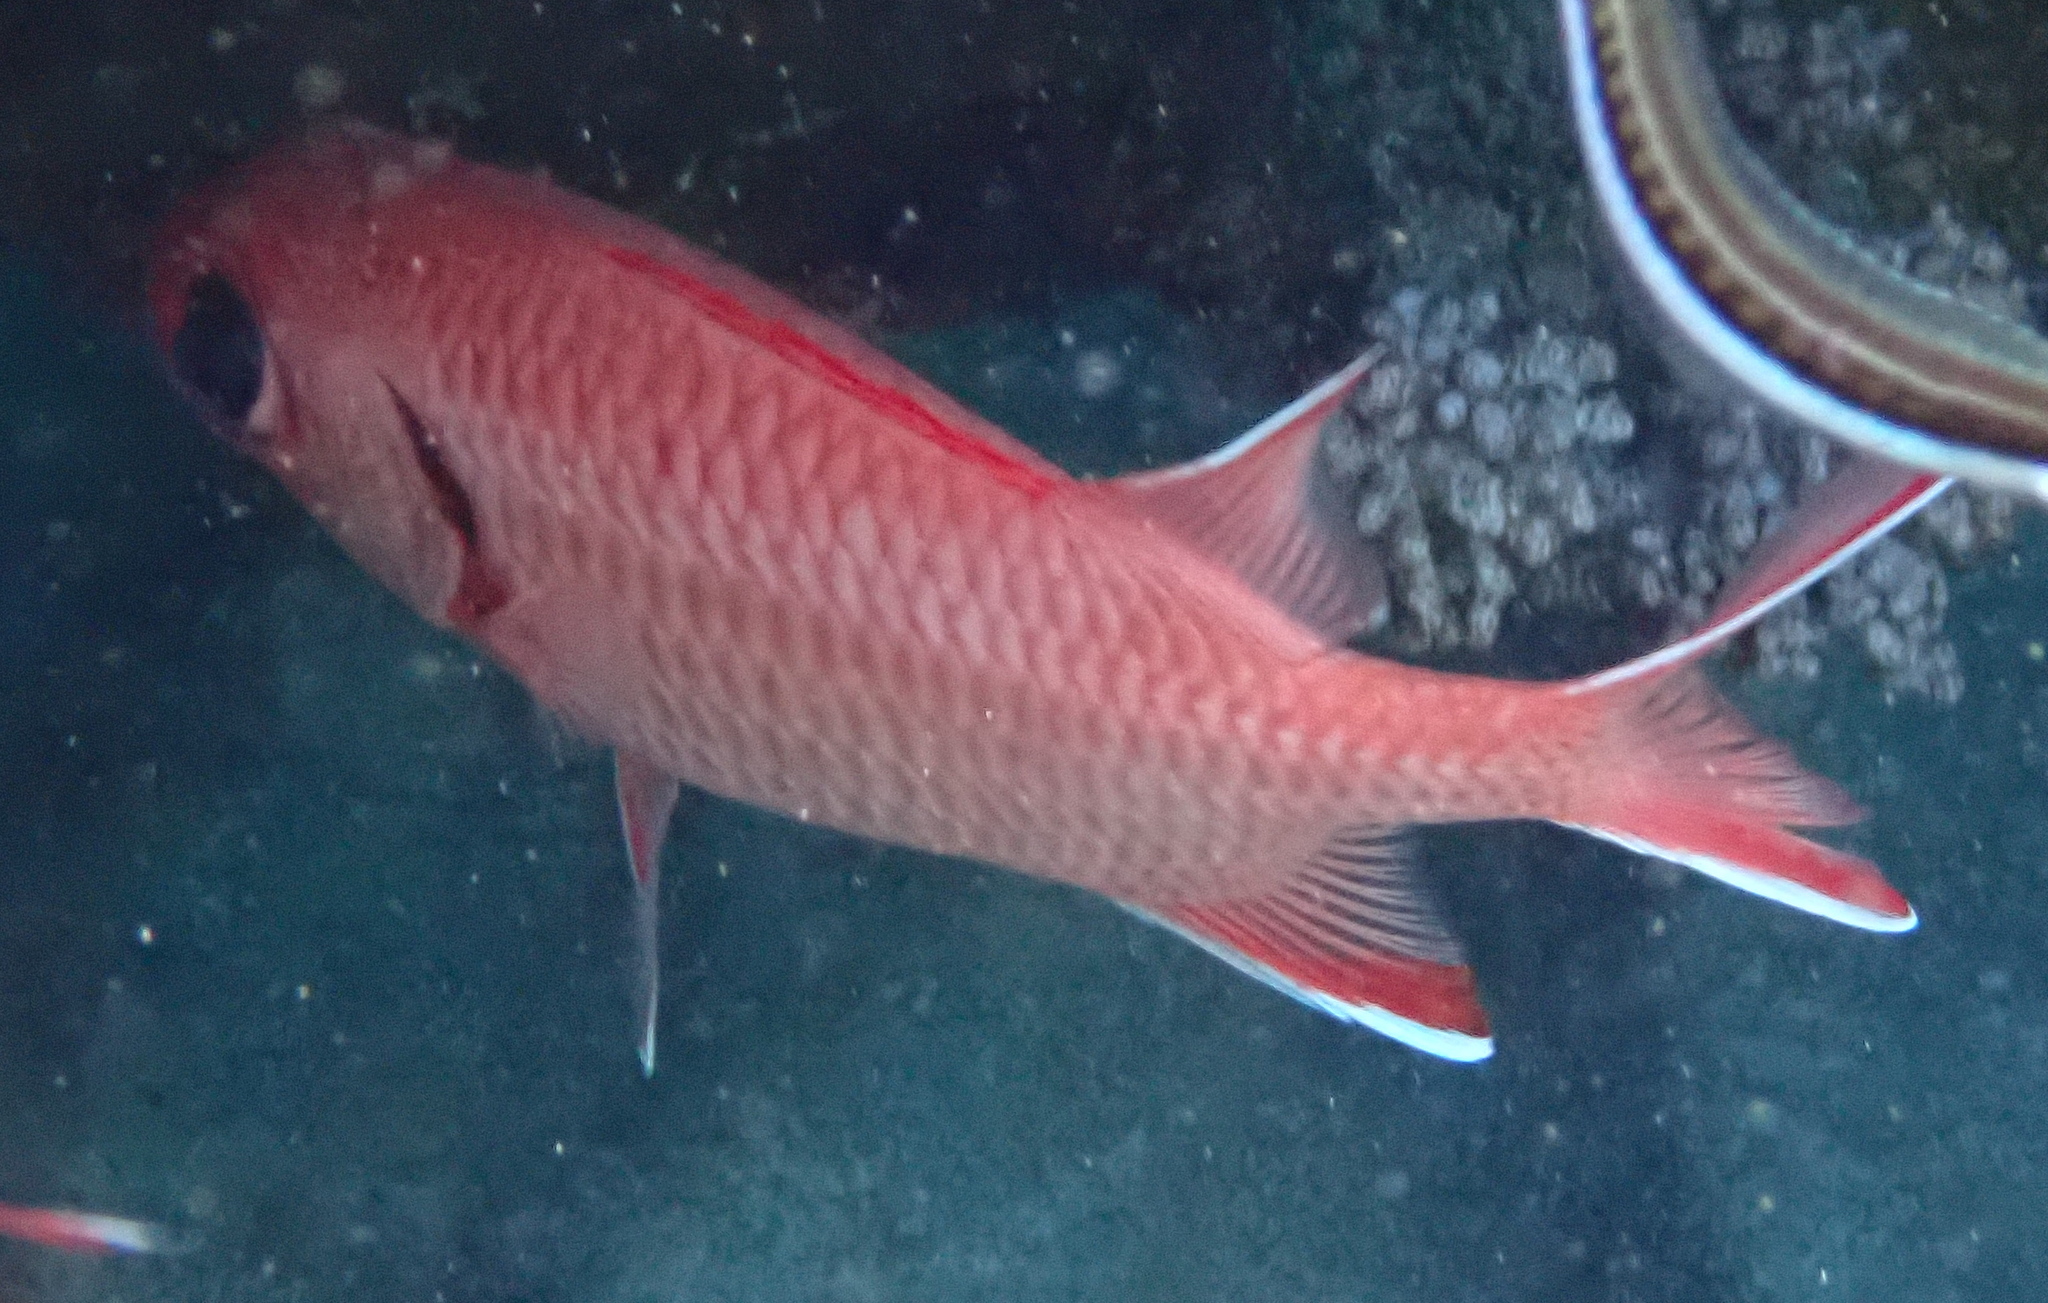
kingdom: Animalia
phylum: Chordata
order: Beryciformes
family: Holocentridae
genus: Myripristis
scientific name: Myripristis murdjan
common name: Big-eye soldierfish
